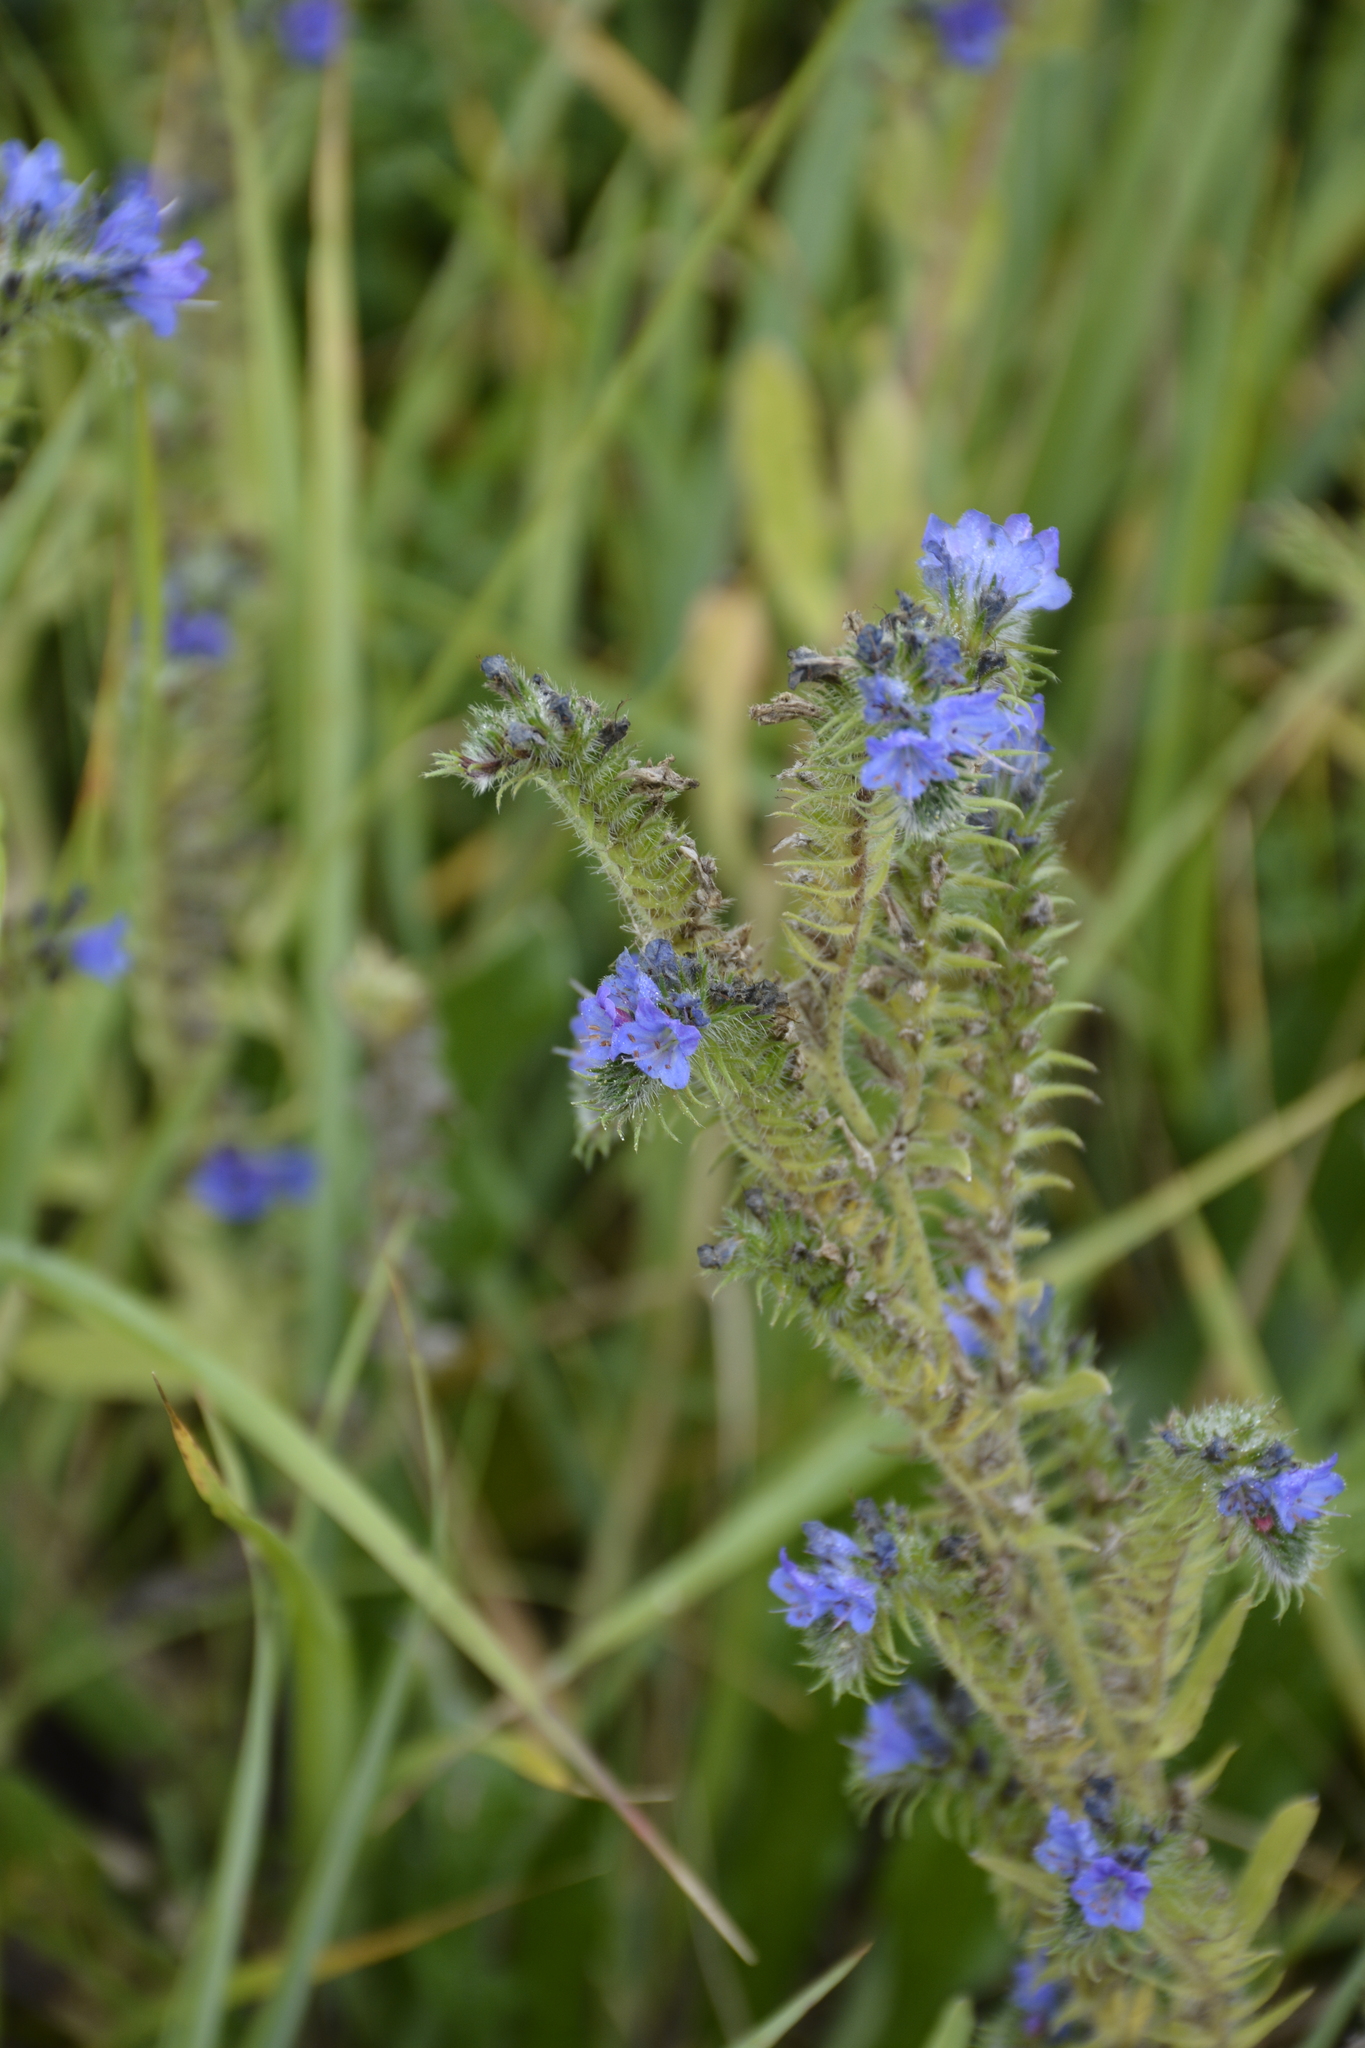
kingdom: Plantae
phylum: Tracheophyta
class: Magnoliopsida
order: Boraginales
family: Boraginaceae
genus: Echium
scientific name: Echium vulgare
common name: Common viper's bugloss
